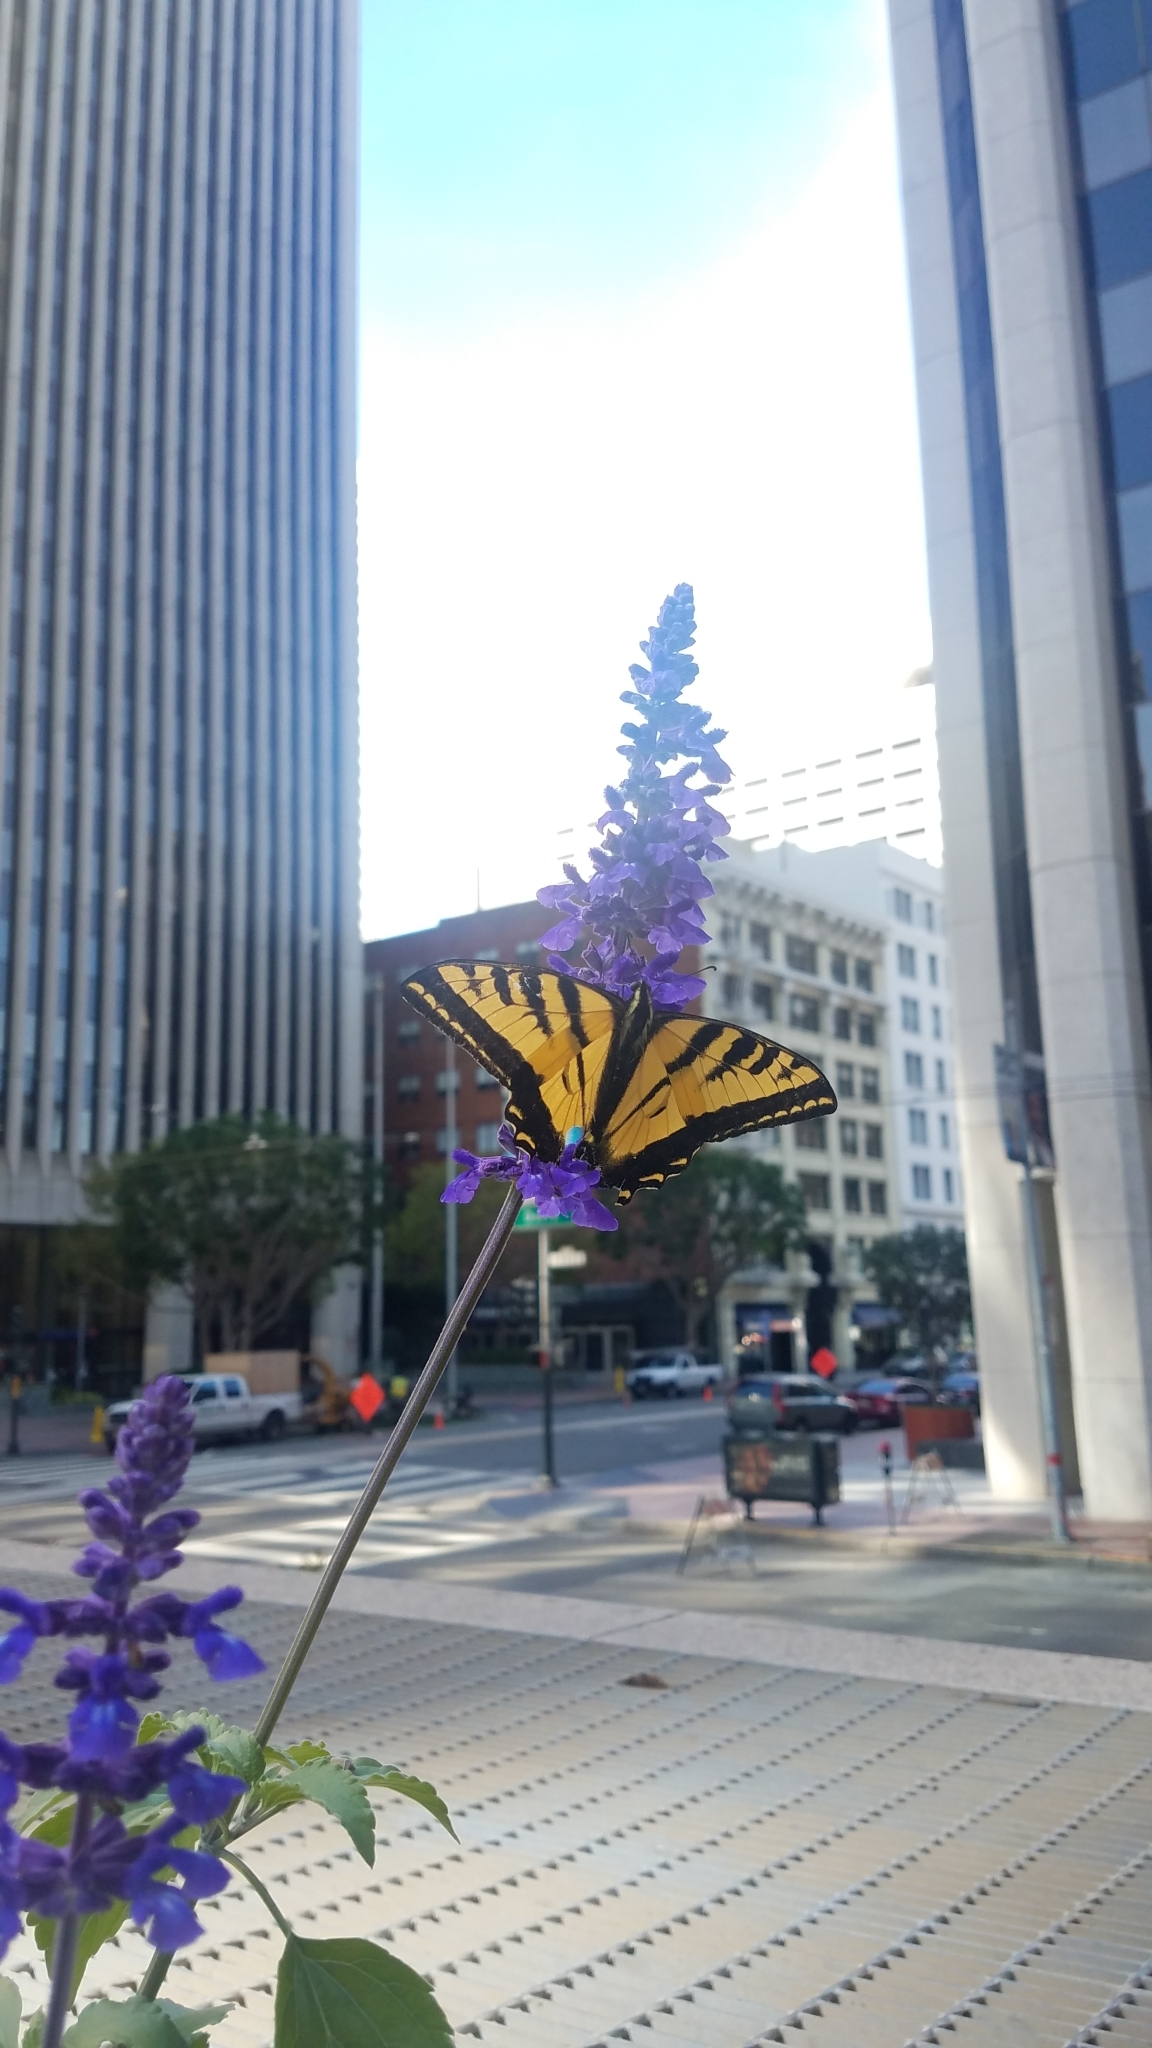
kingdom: Animalia
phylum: Arthropoda
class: Insecta
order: Lepidoptera
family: Papilionidae
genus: Papilio
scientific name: Papilio rutulus
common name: Western tiger swallowtail
